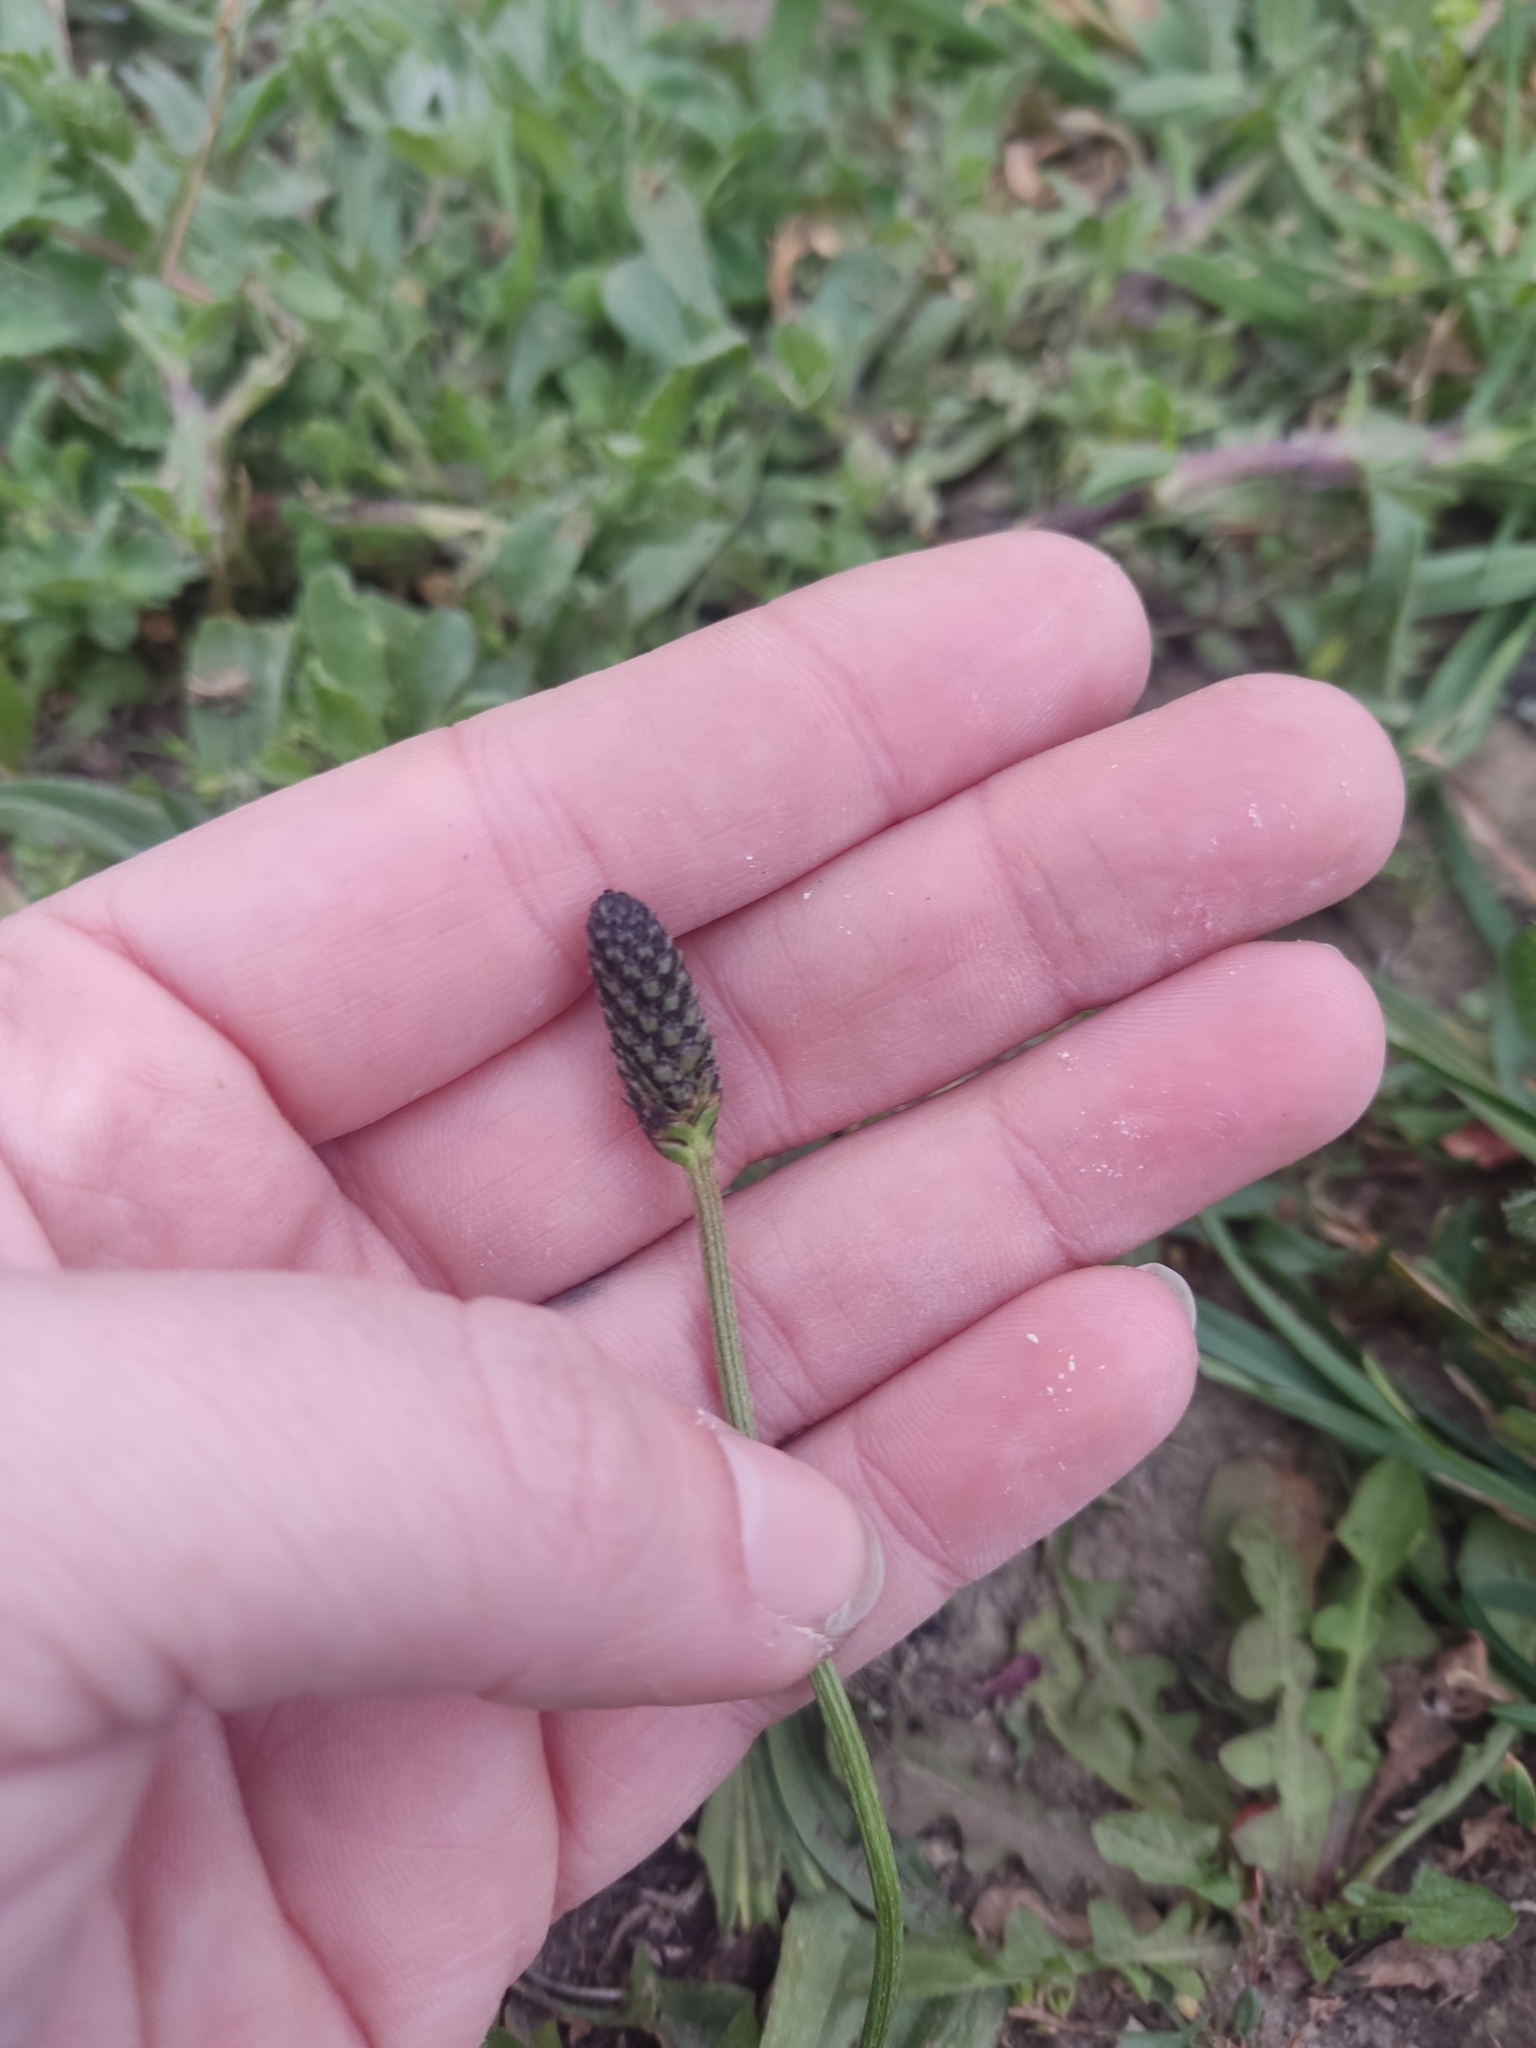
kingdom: Plantae
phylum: Tracheophyta
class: Magnoliopsida
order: Lamiales
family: Plantaginaceae
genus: Plantago
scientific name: Plantago lanceolata
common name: Ribwort plantain
